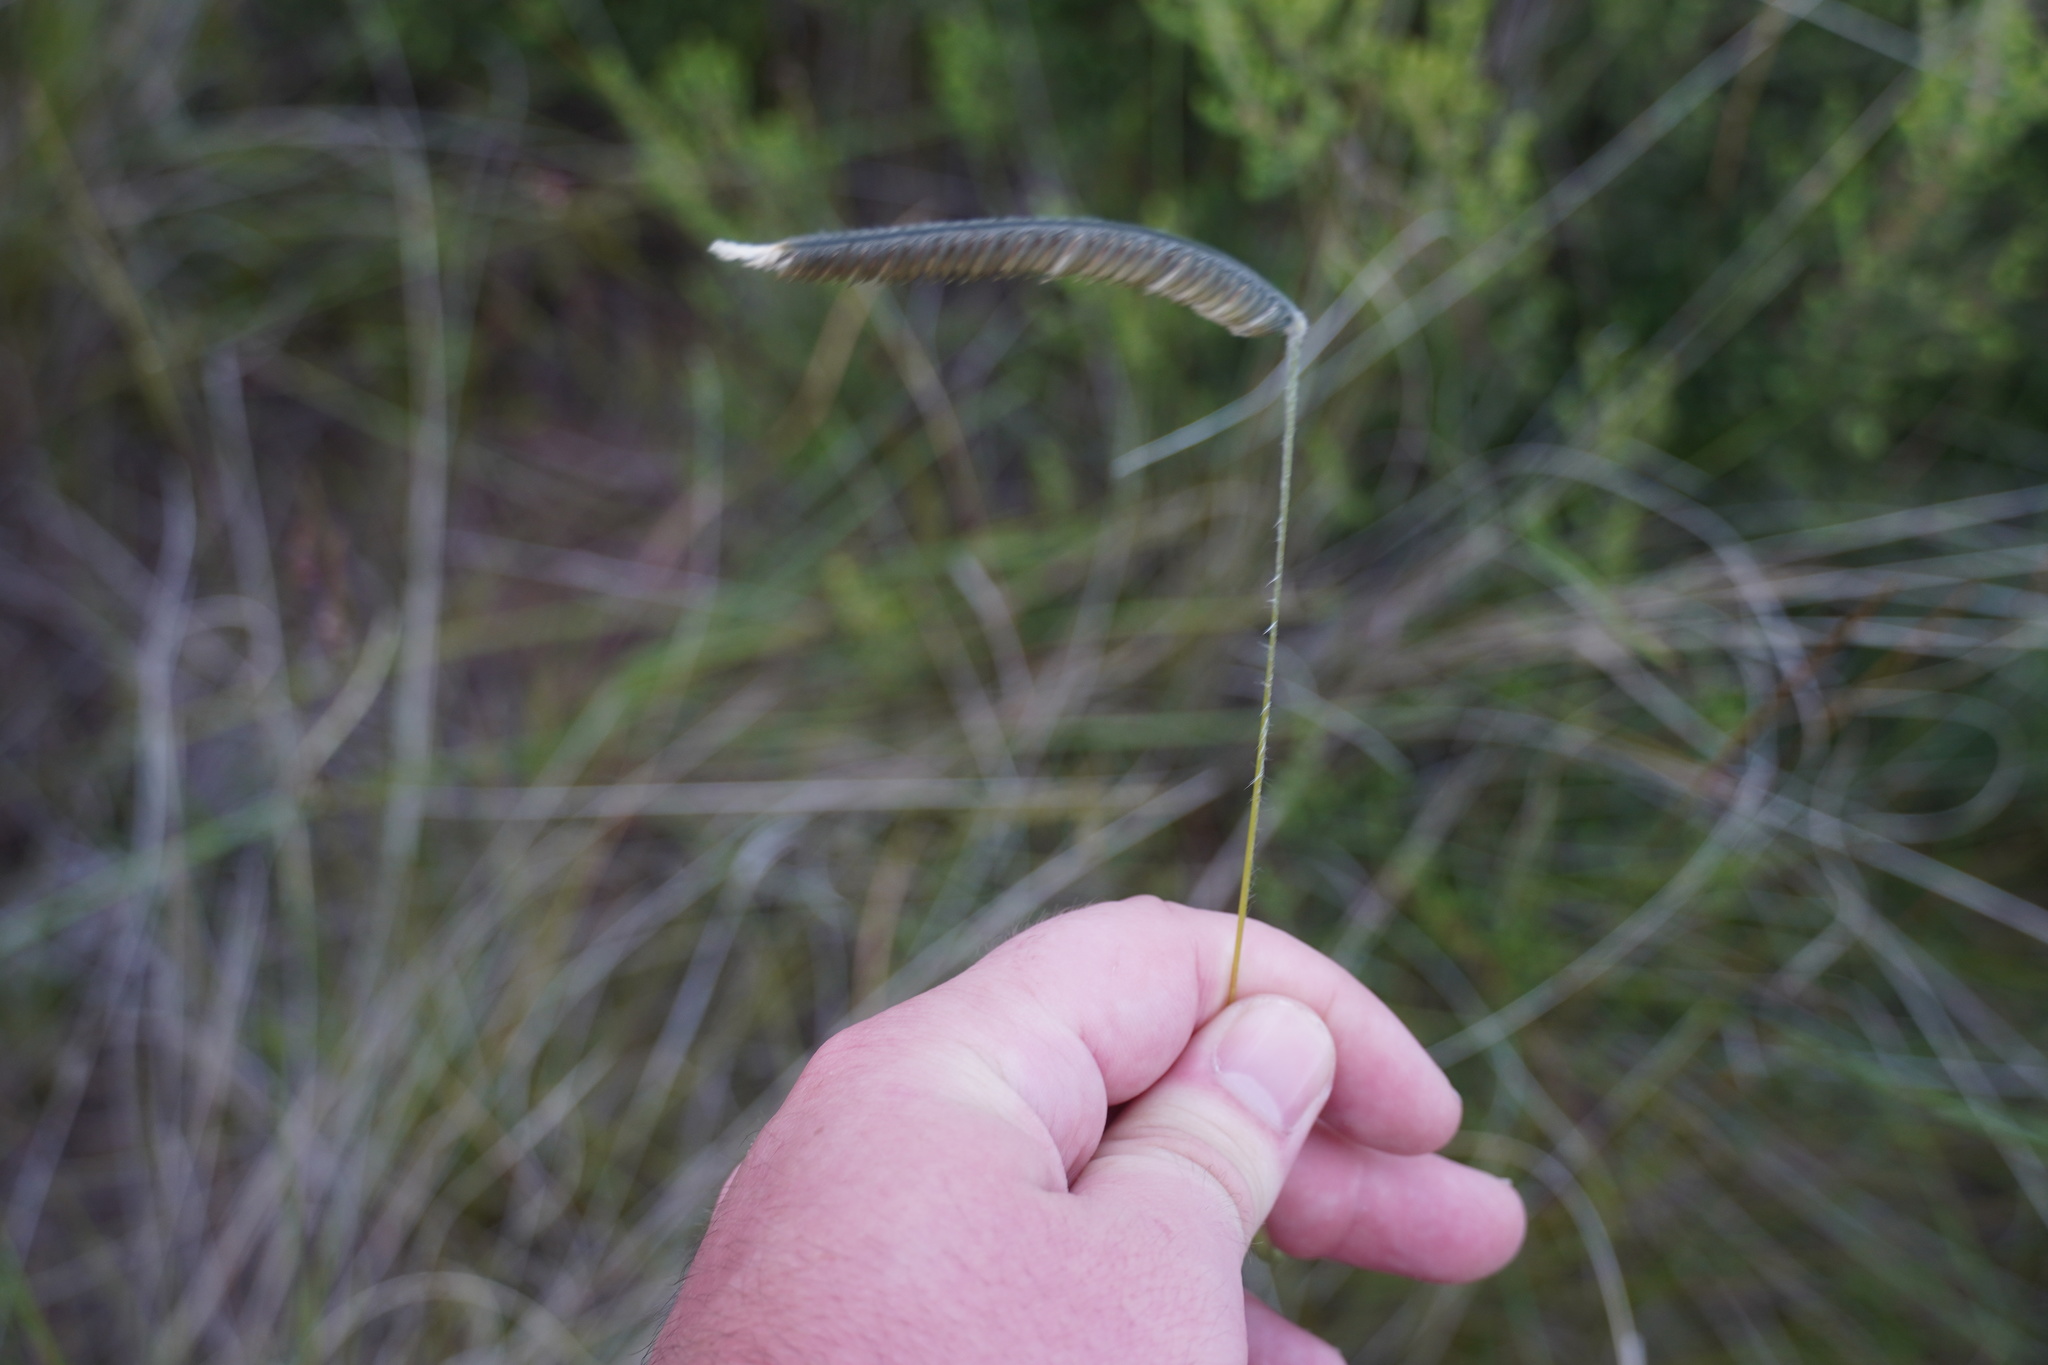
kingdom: Plantae
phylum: Tracheophyta
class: Liliopsida
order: Poales
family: Poaceae
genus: Harpochloa
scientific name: Harpochloa falx
